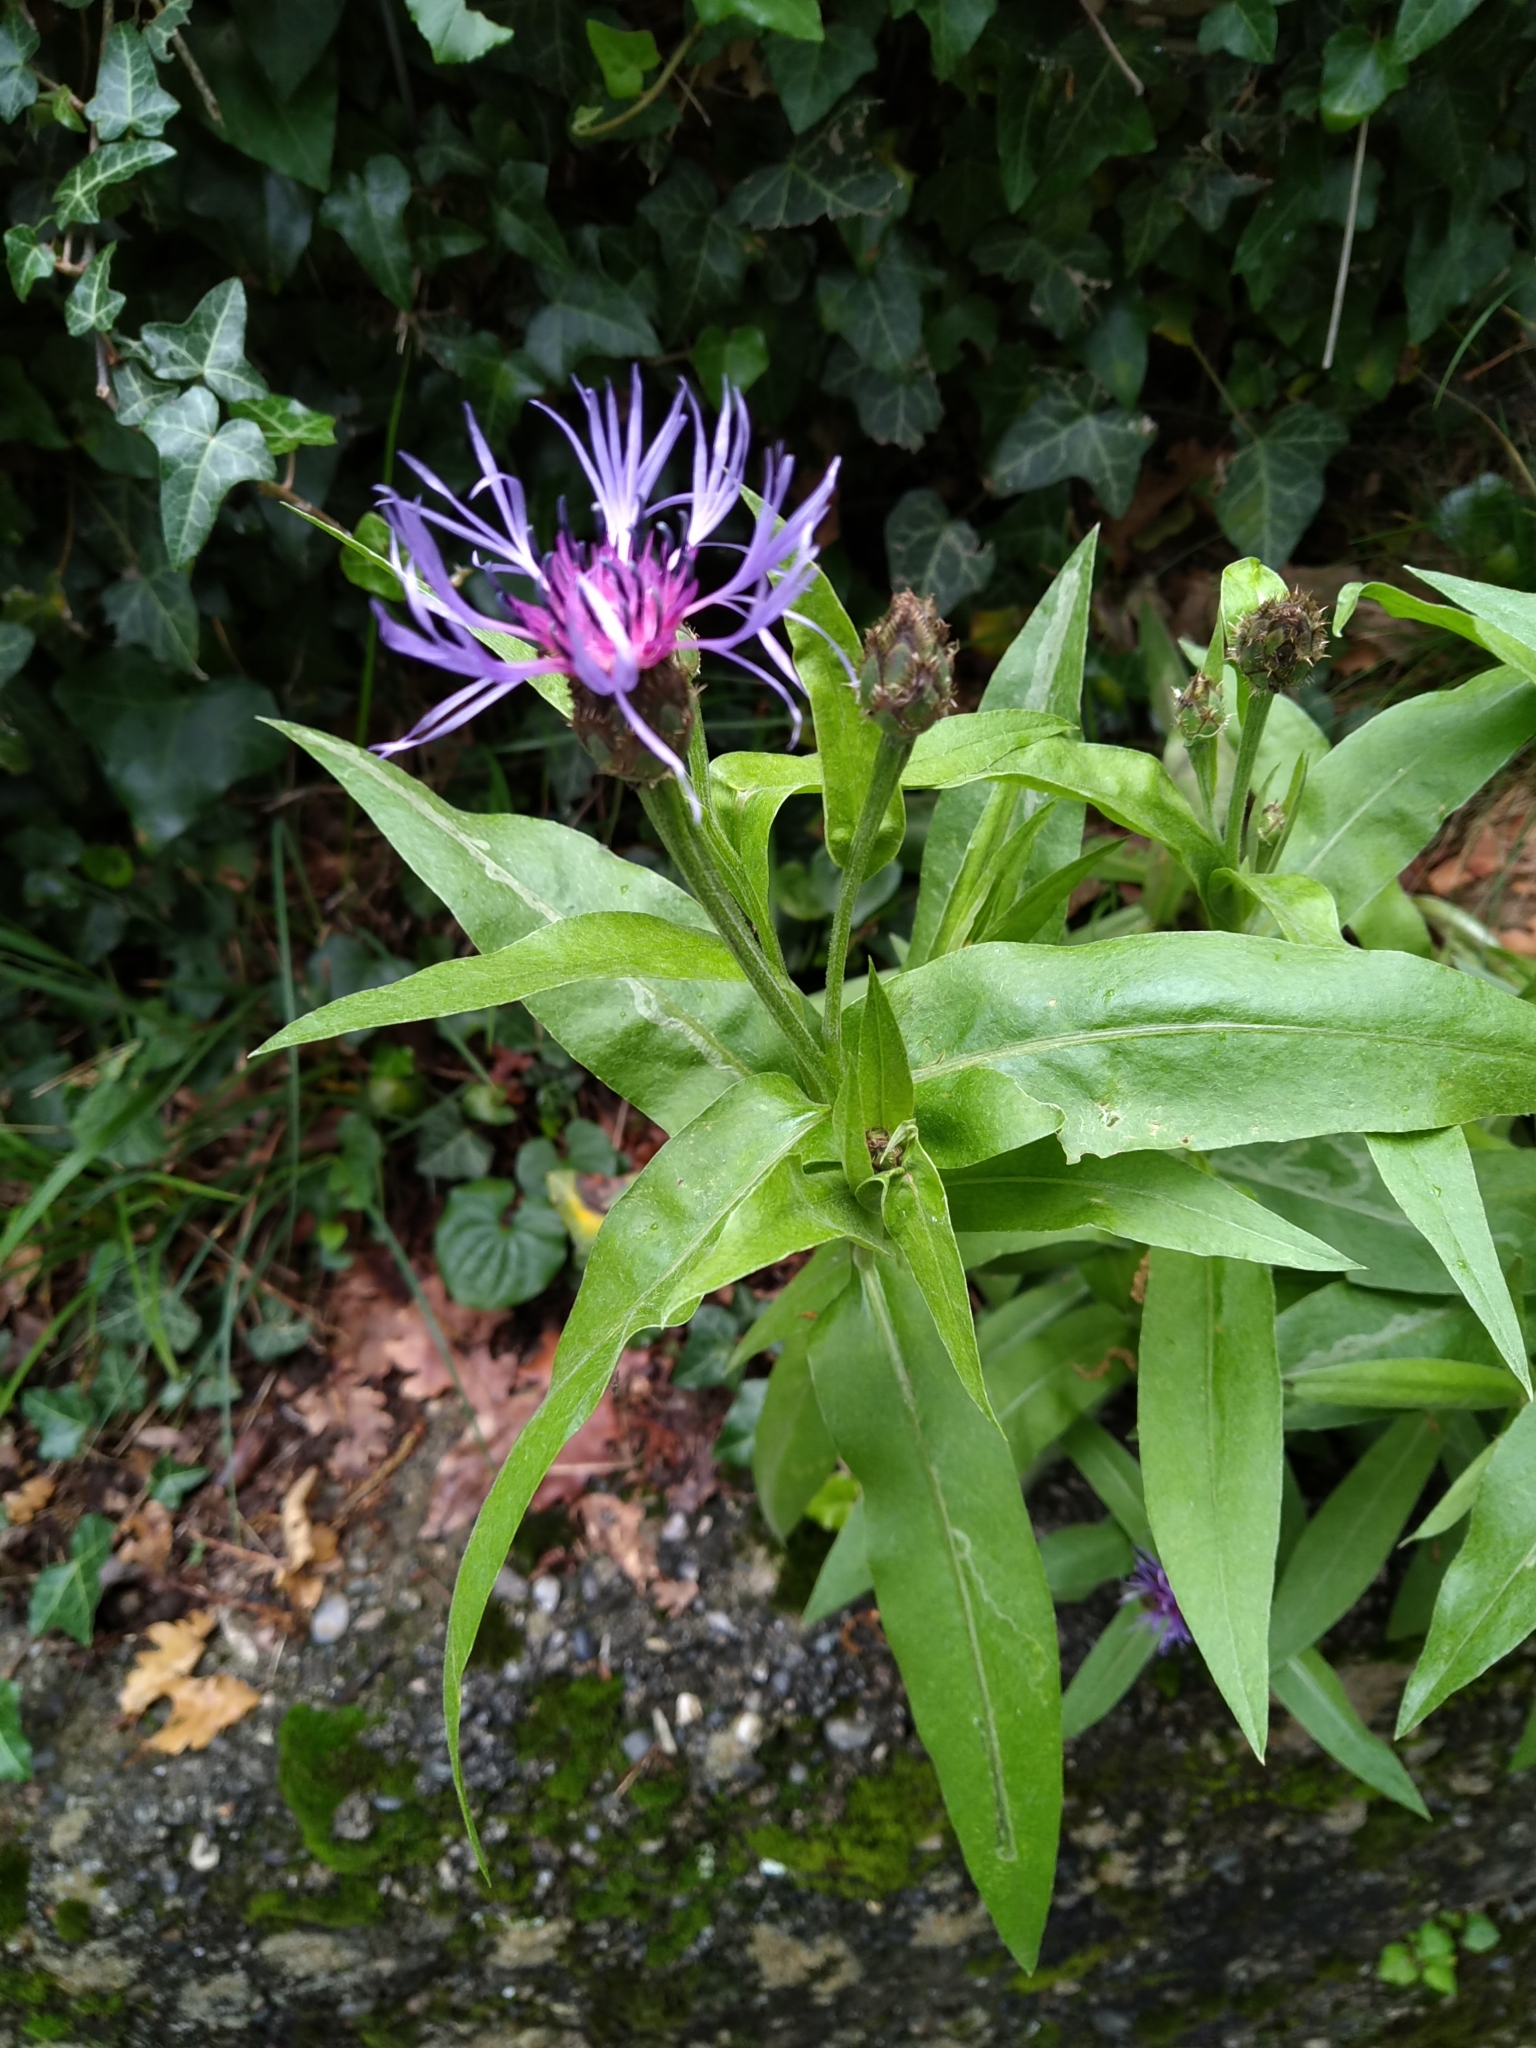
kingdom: Plantae
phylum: Tracheophyta
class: Magnoliopsida
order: Asterales
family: Asteraceae
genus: Centaurea
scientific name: Centaurea triumfettii
